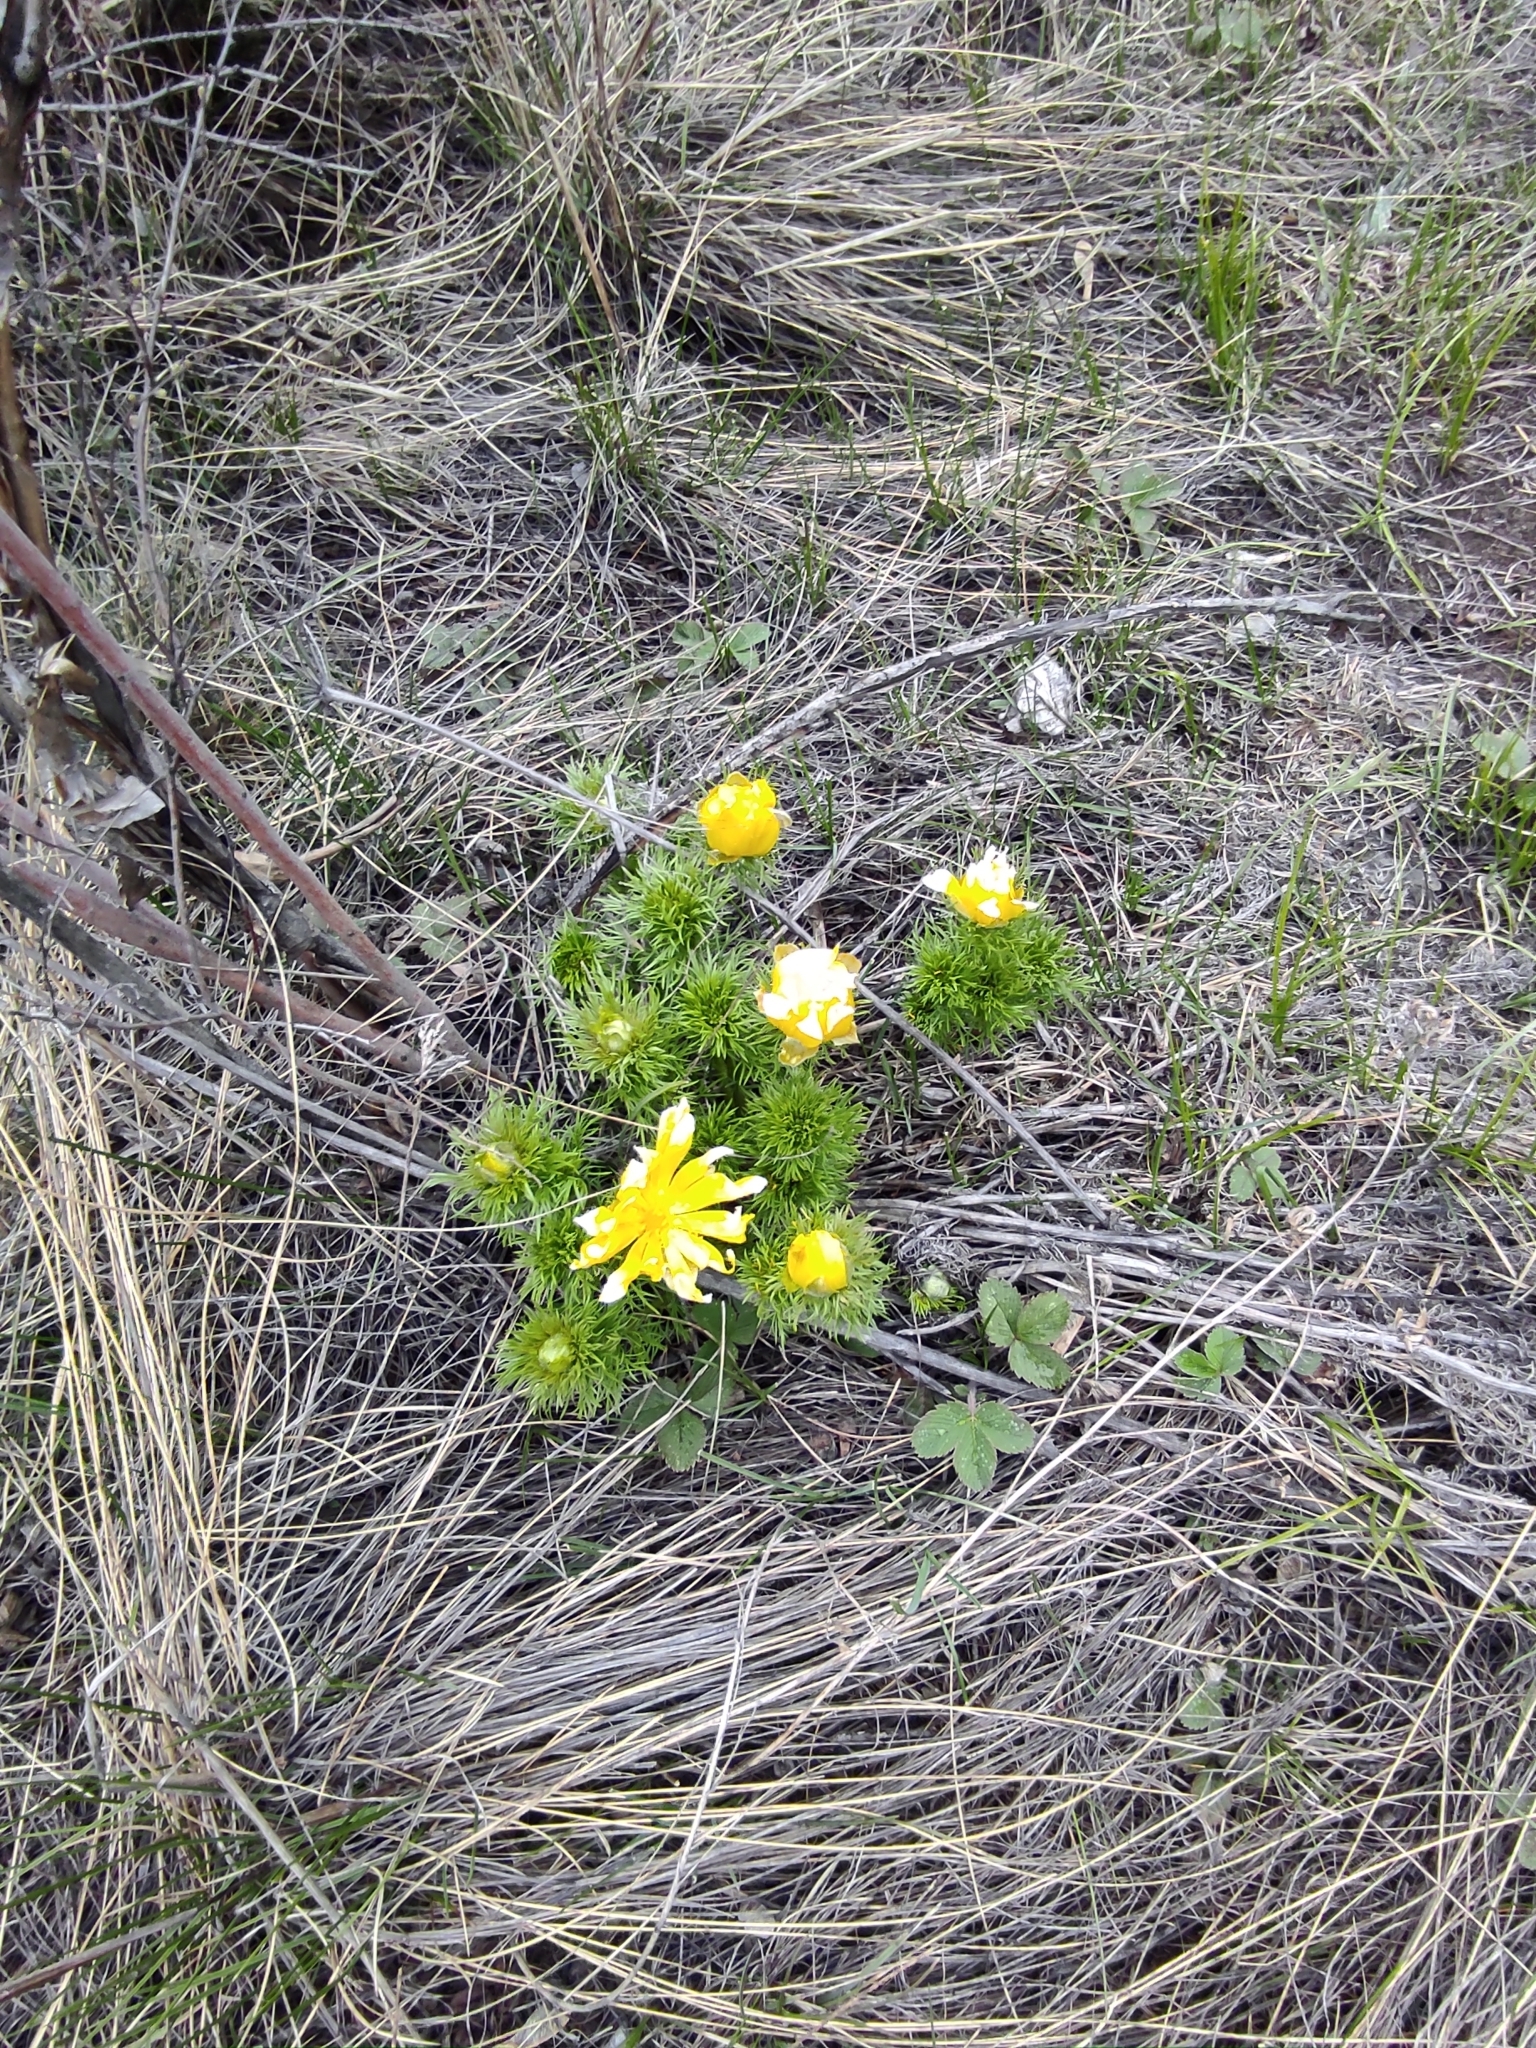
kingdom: Plantae
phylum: Tracheophyta
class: Magnoliopsida
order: Ranunculales
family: Ranunculaceae
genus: Adonis
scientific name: Adonis vernalis
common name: Yellow pheasants-eye
